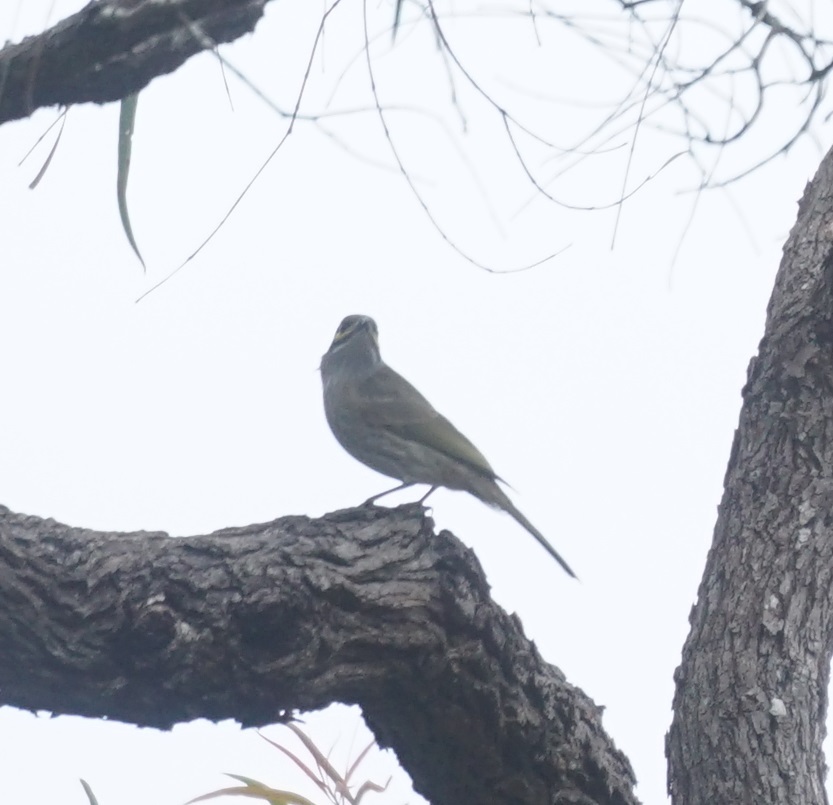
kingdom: Animalia
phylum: Chordata
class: Aves
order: Passeriformes
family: Meliphagidae
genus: Caligavis
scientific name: Caligavis chrysops
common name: Yellow-faced honeyeater
